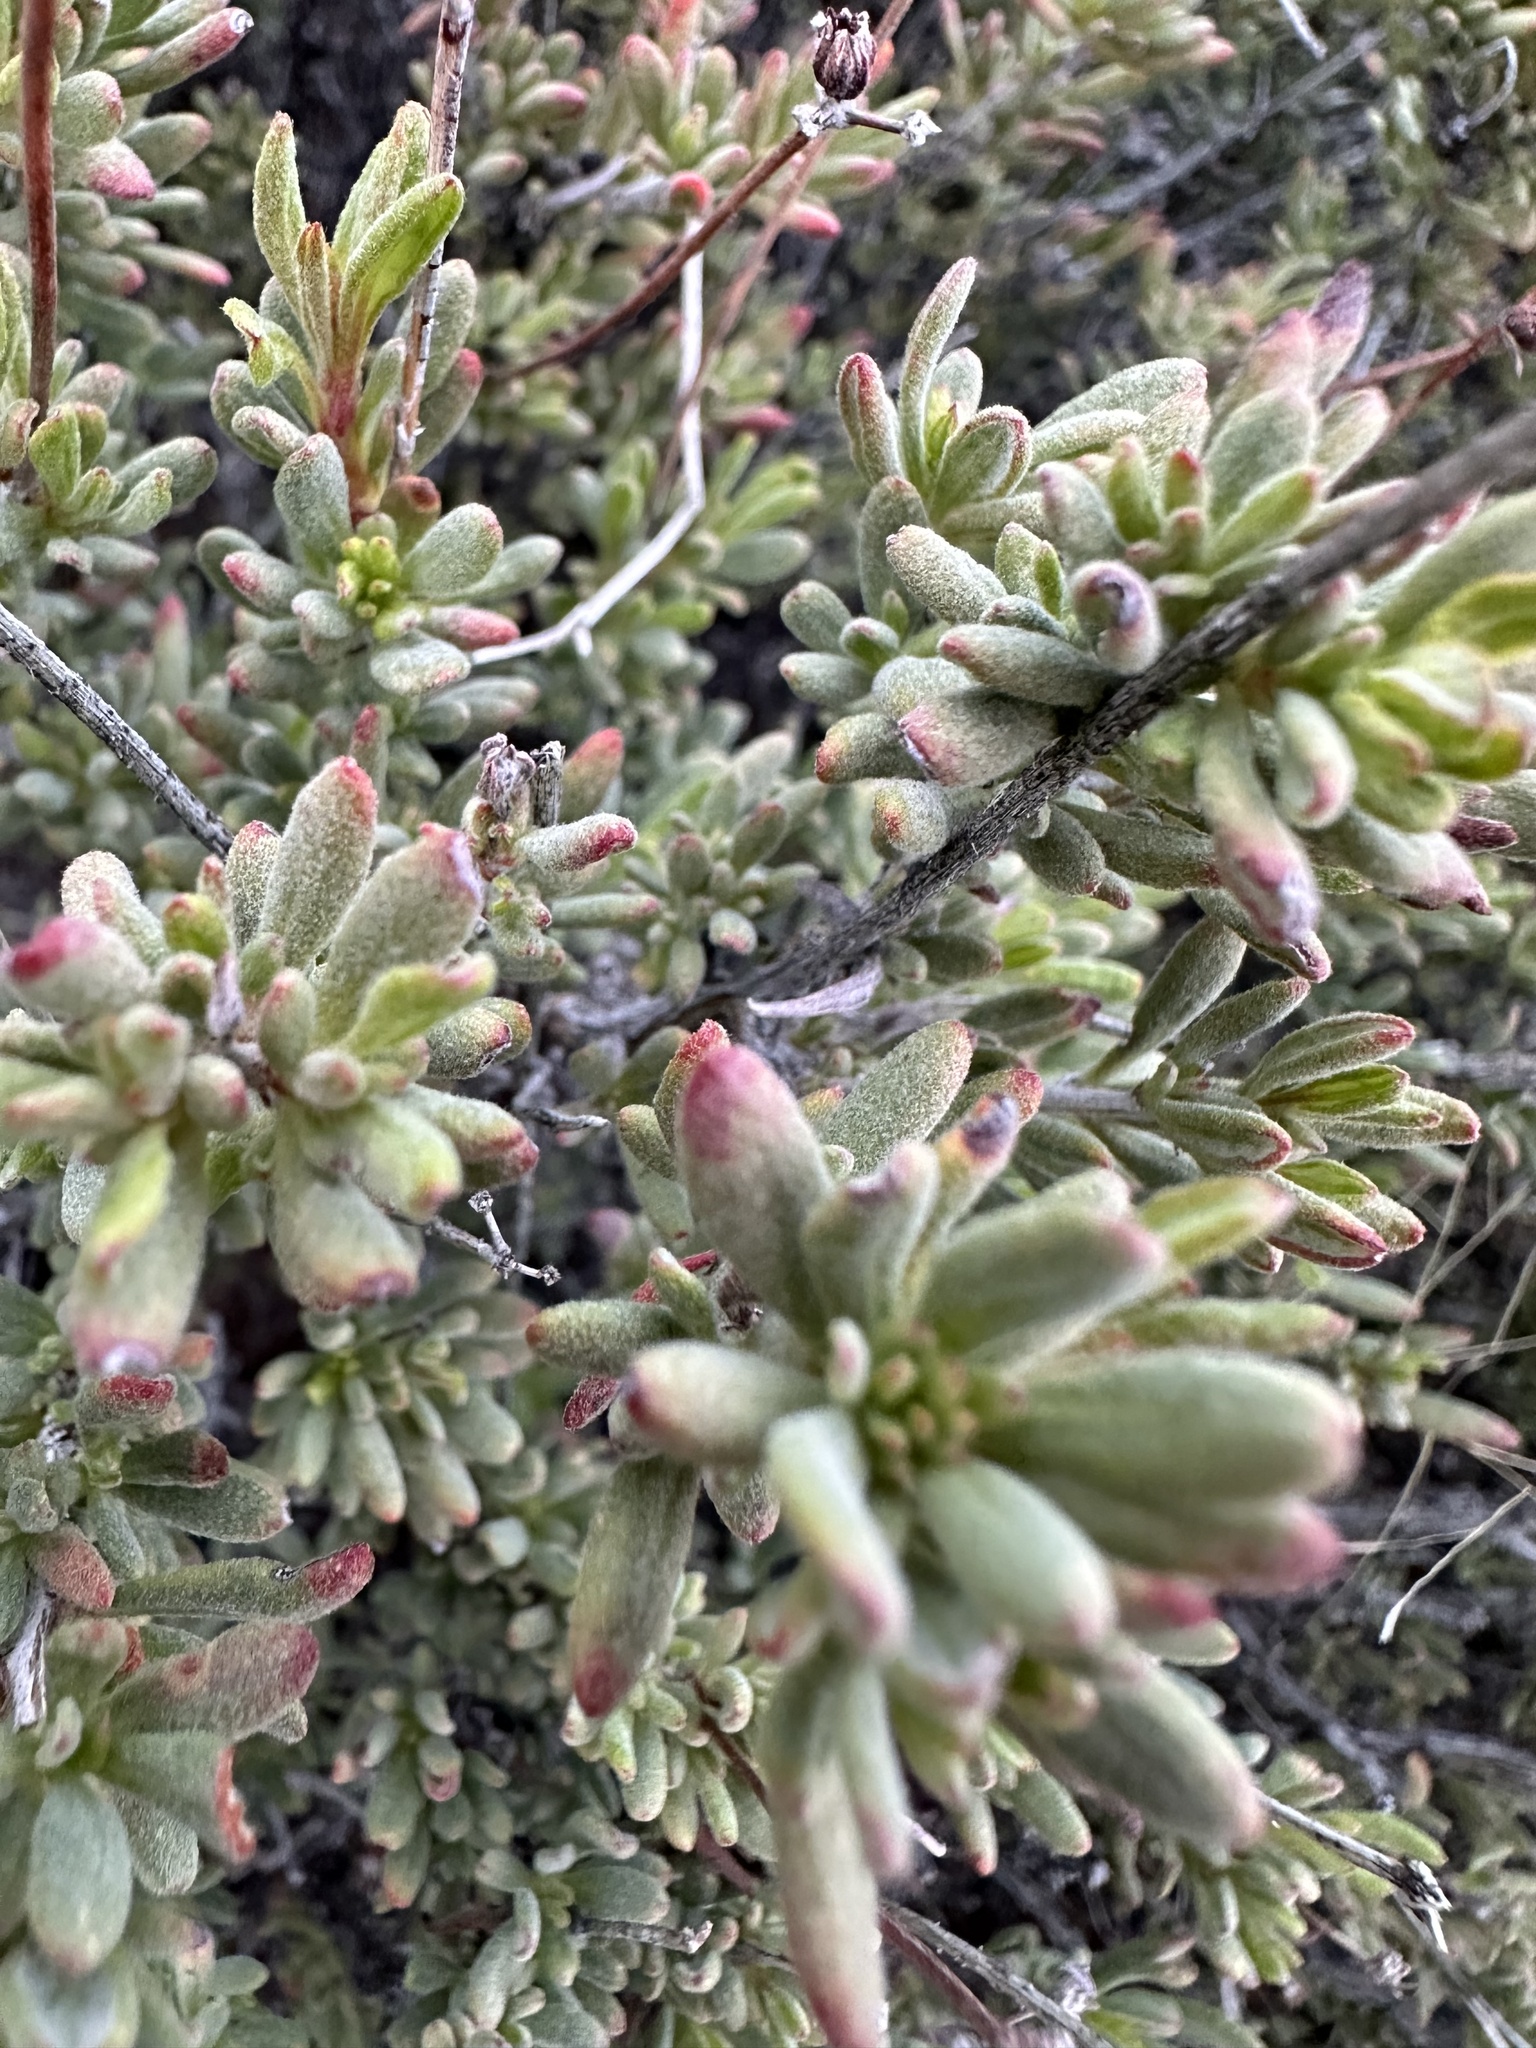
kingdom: Plantae
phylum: Tracheophyta
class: Magnoliopsida
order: Caryophyllales
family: Polygonaceae
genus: Eriogonum
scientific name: Eriogonum fasciculatum
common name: California wild buckwheat
